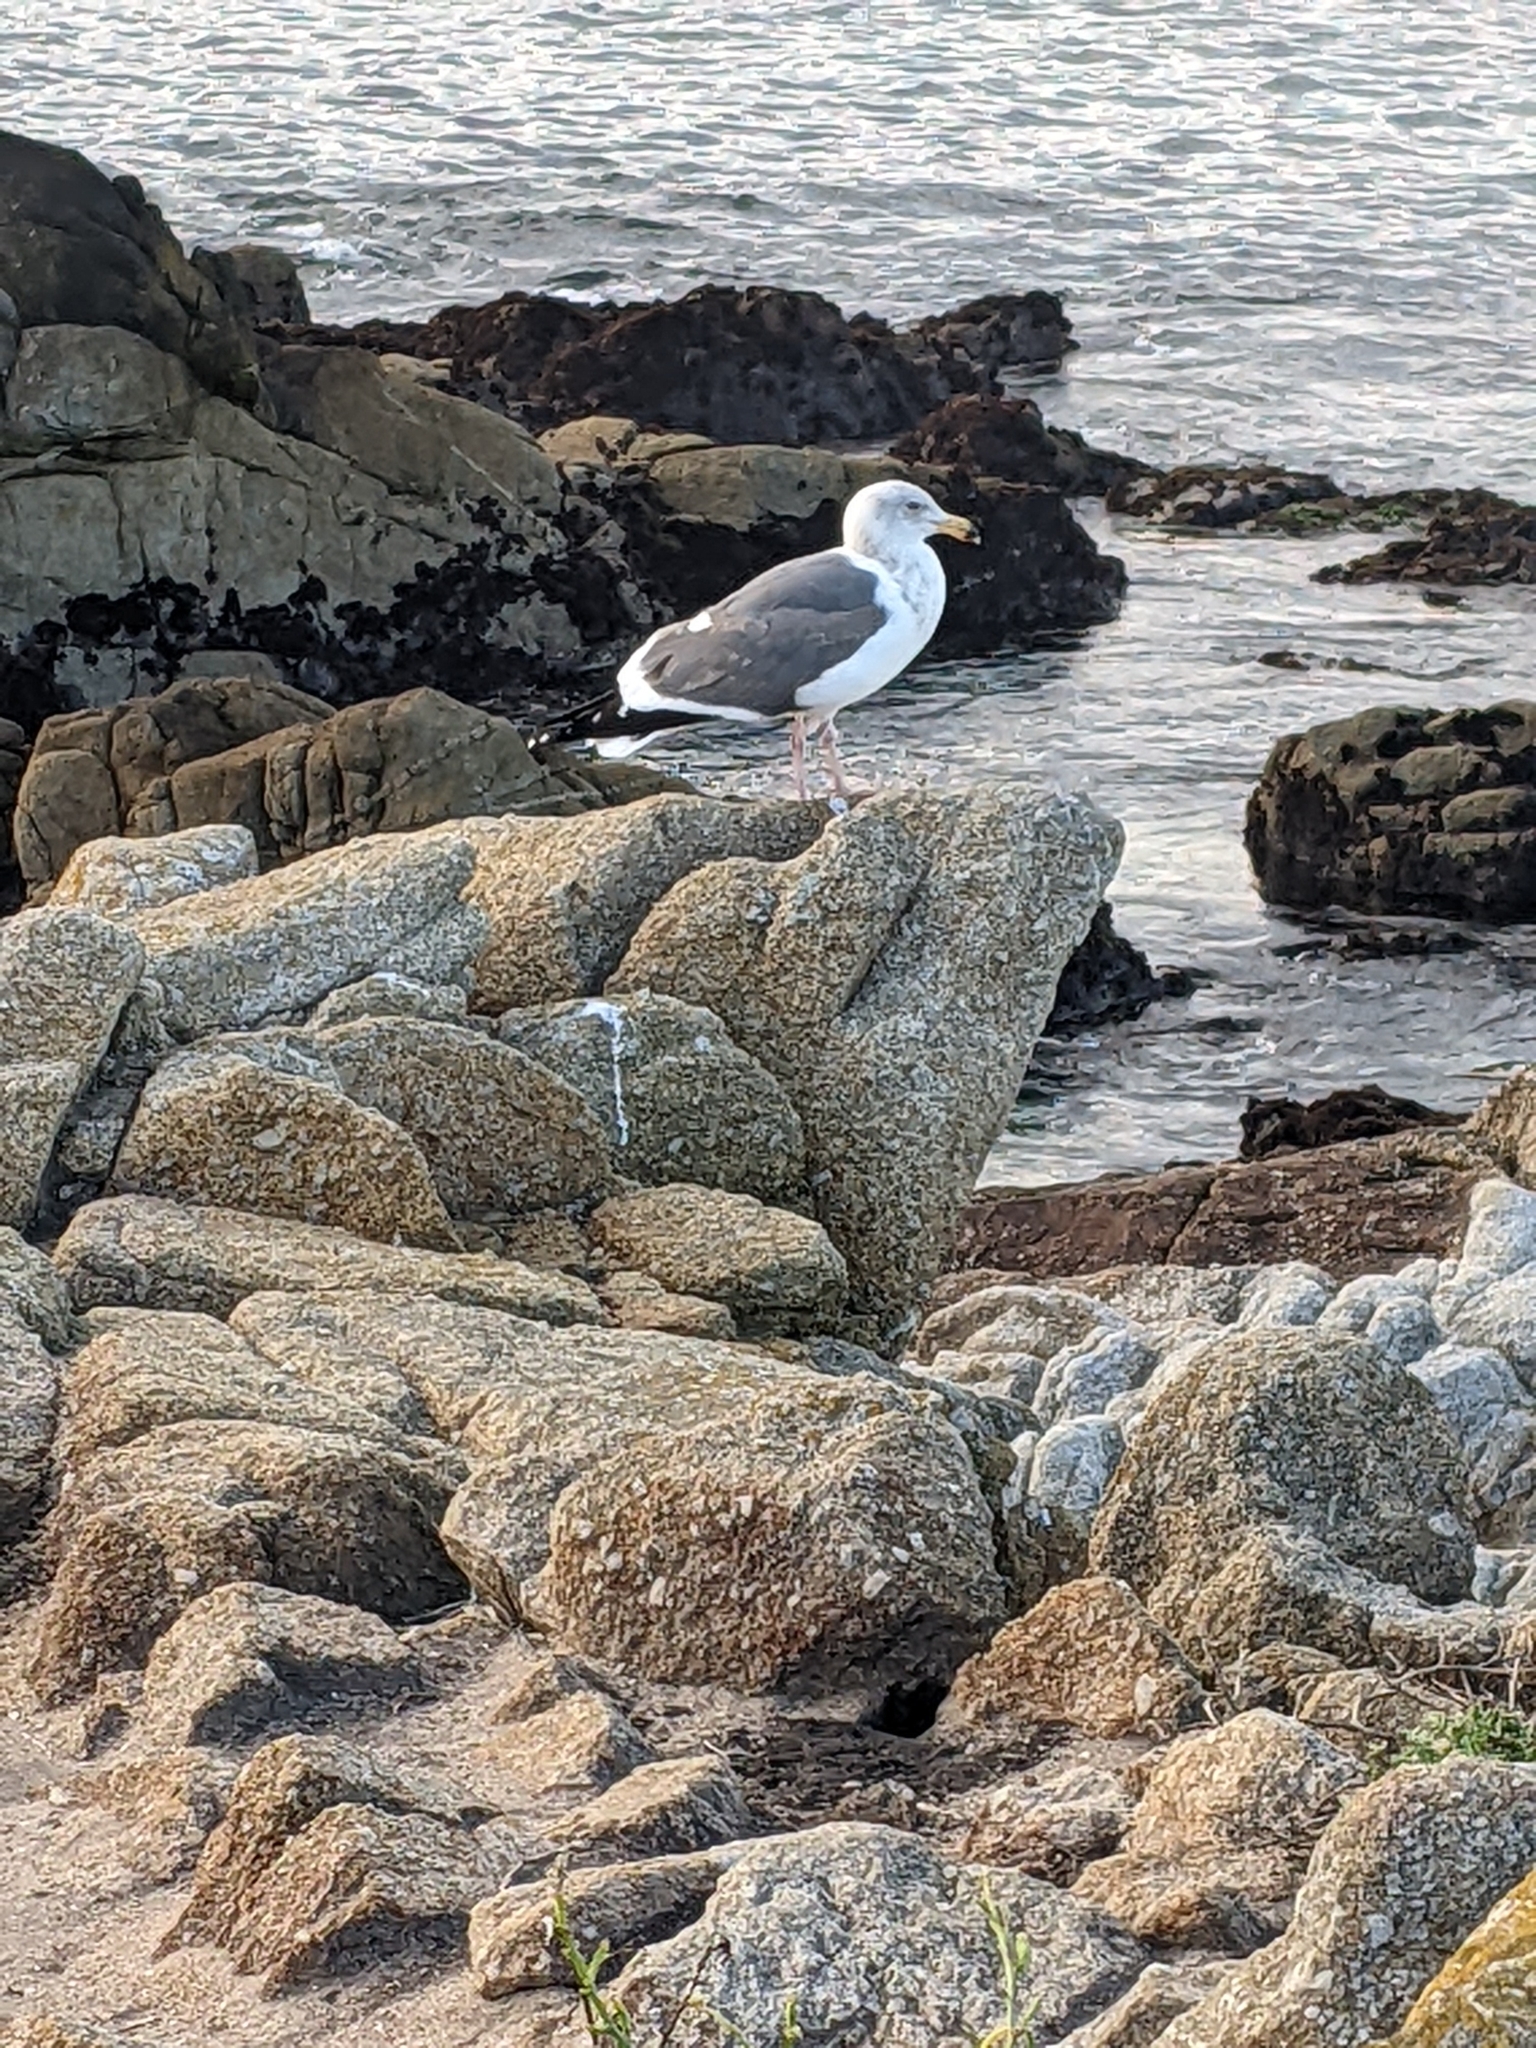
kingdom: Animalia
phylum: Chordata
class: Aves
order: Charadriiformes
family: Laridae
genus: Larus
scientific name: Larus occidentalis
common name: Western gull
